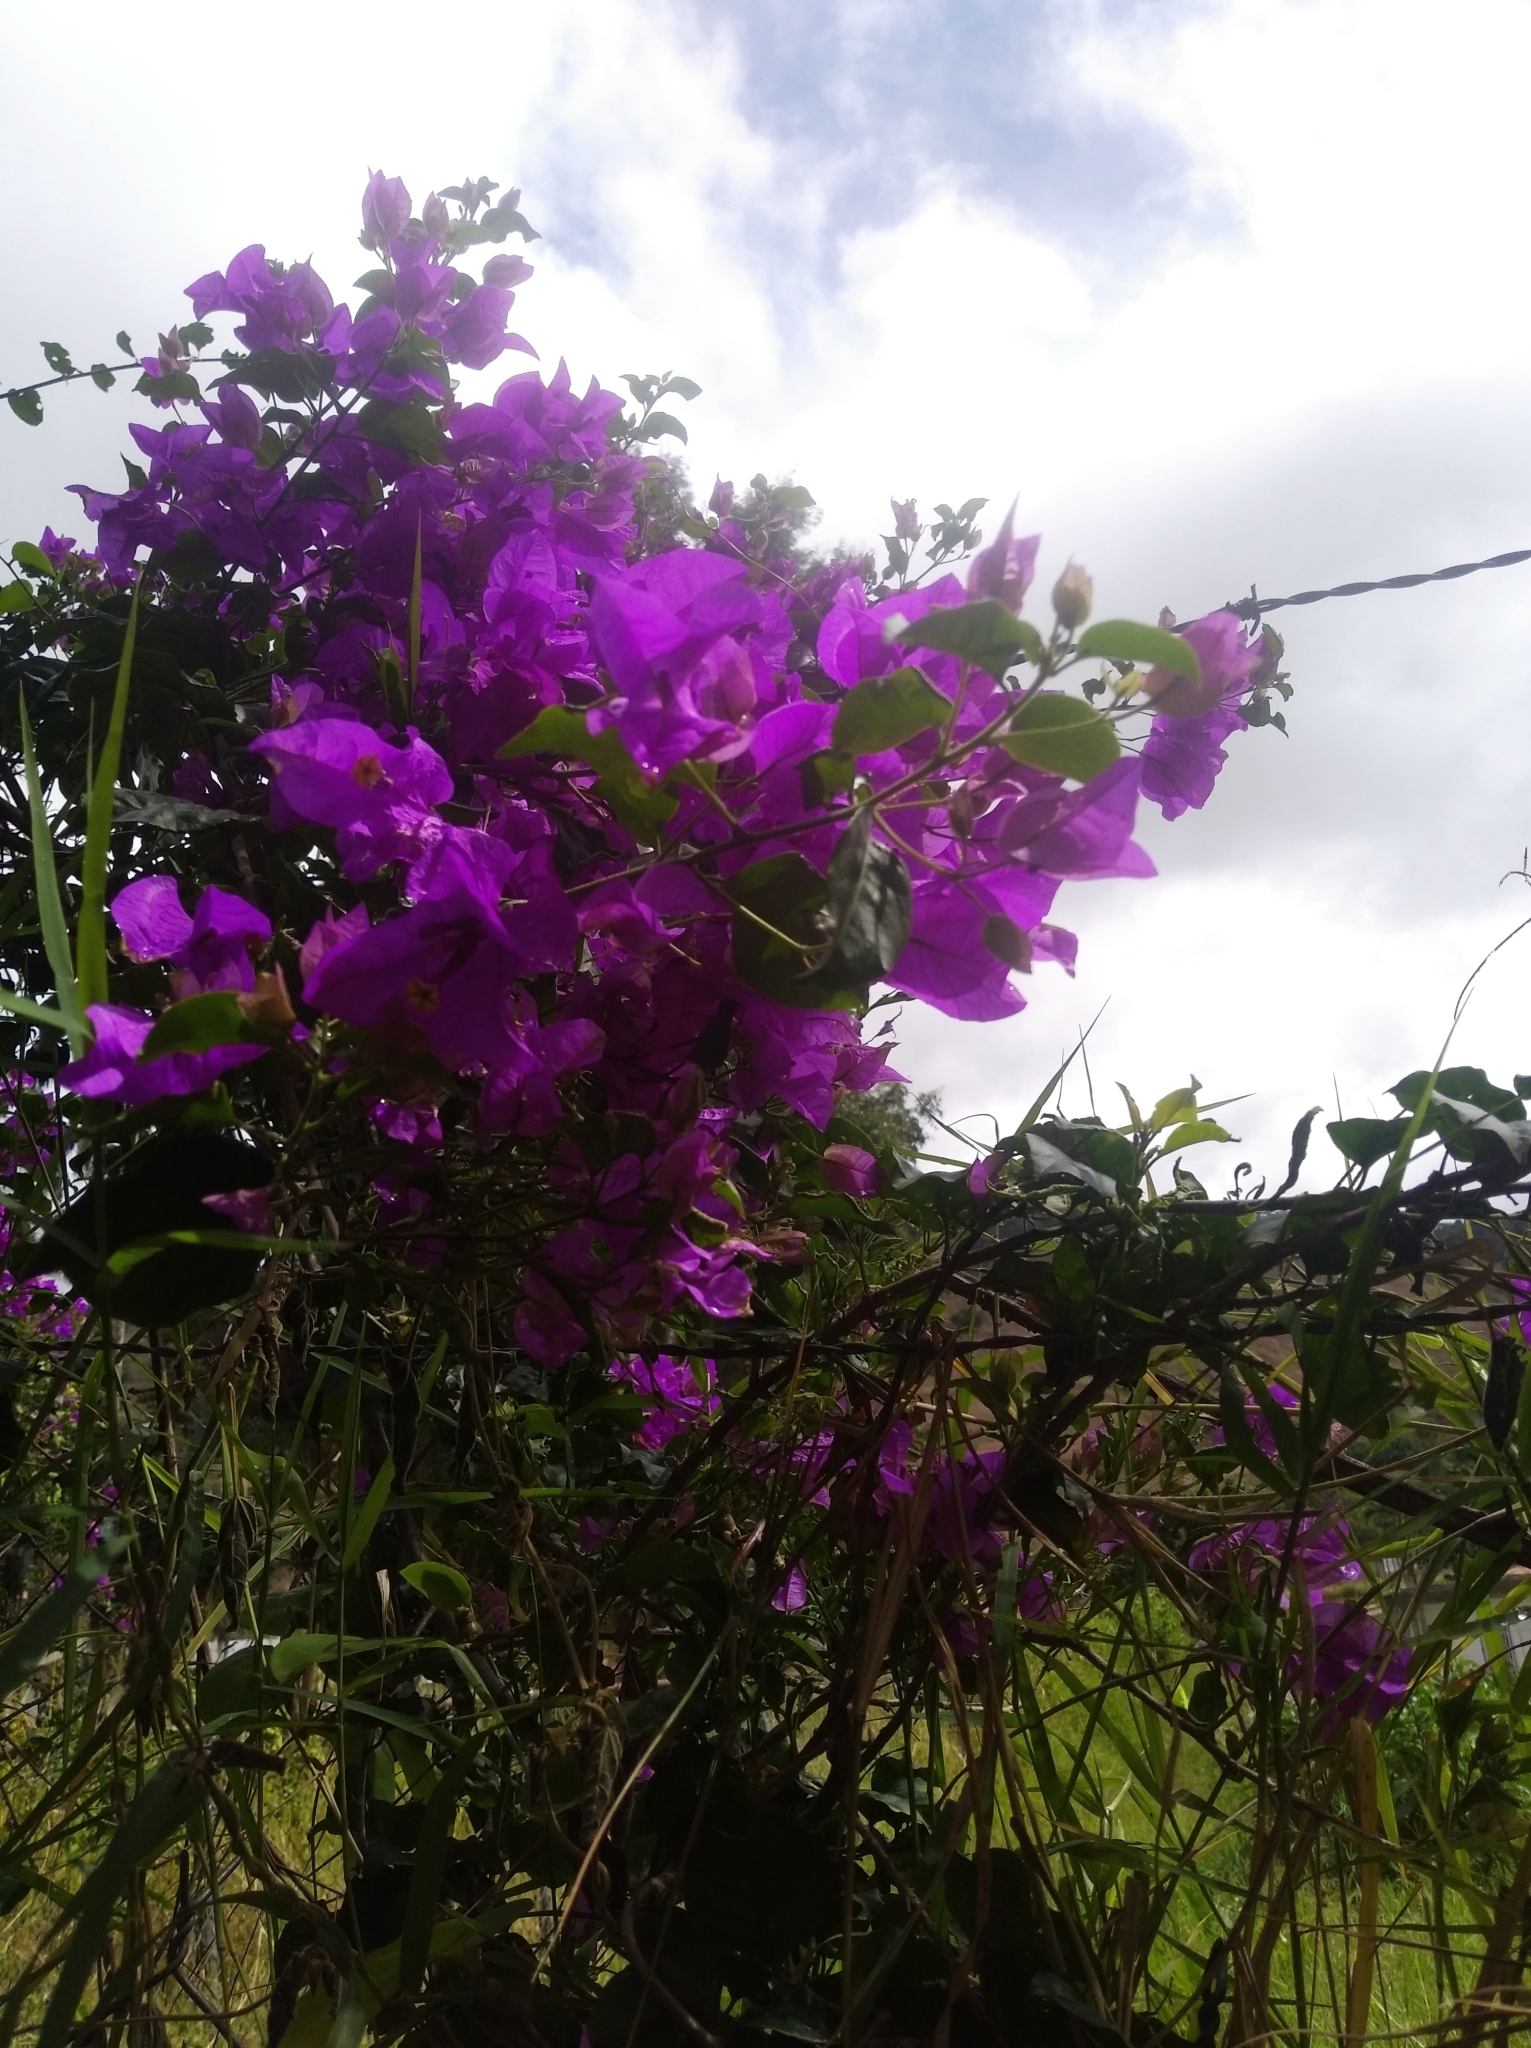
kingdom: Plantae
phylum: Tracheophyta
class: Magnoliopsida
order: Caryophyllales
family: Nyctaginaceae
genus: Bougainvillea
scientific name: Bougainvillea glabra
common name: Paperflower
